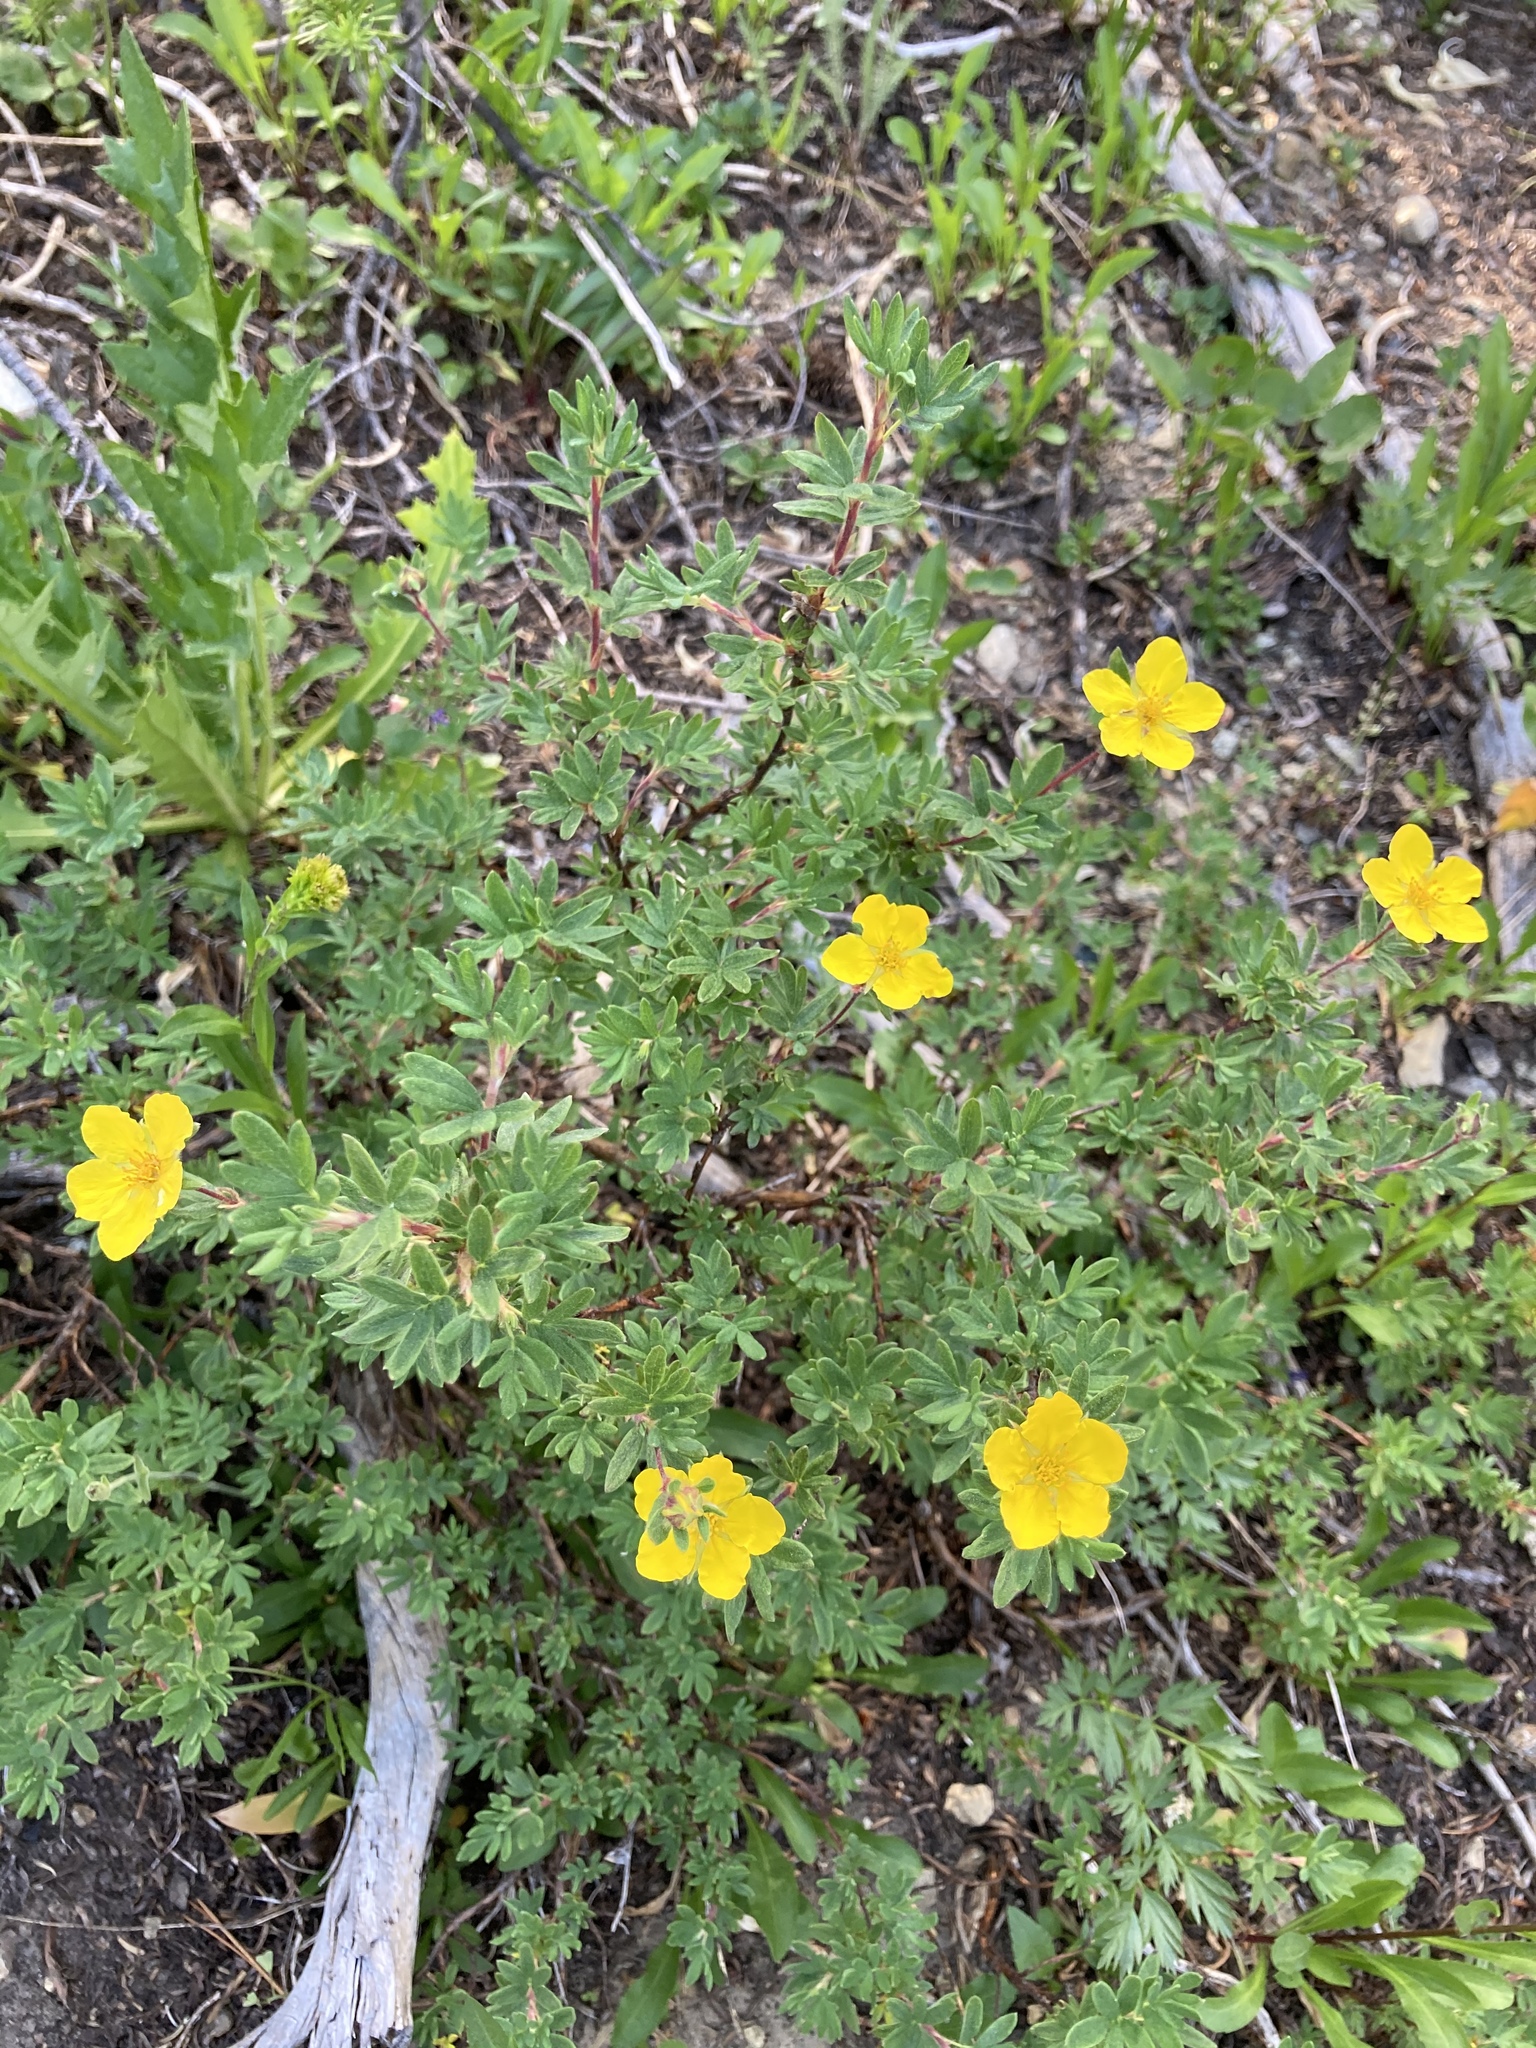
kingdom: Plantae
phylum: Tracheophyta
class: Magnoliopsida
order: Rosales
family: Rosaceae
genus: Dasiphora
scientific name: Dasiphora fruticosa
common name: Shrubby cinquefoil
